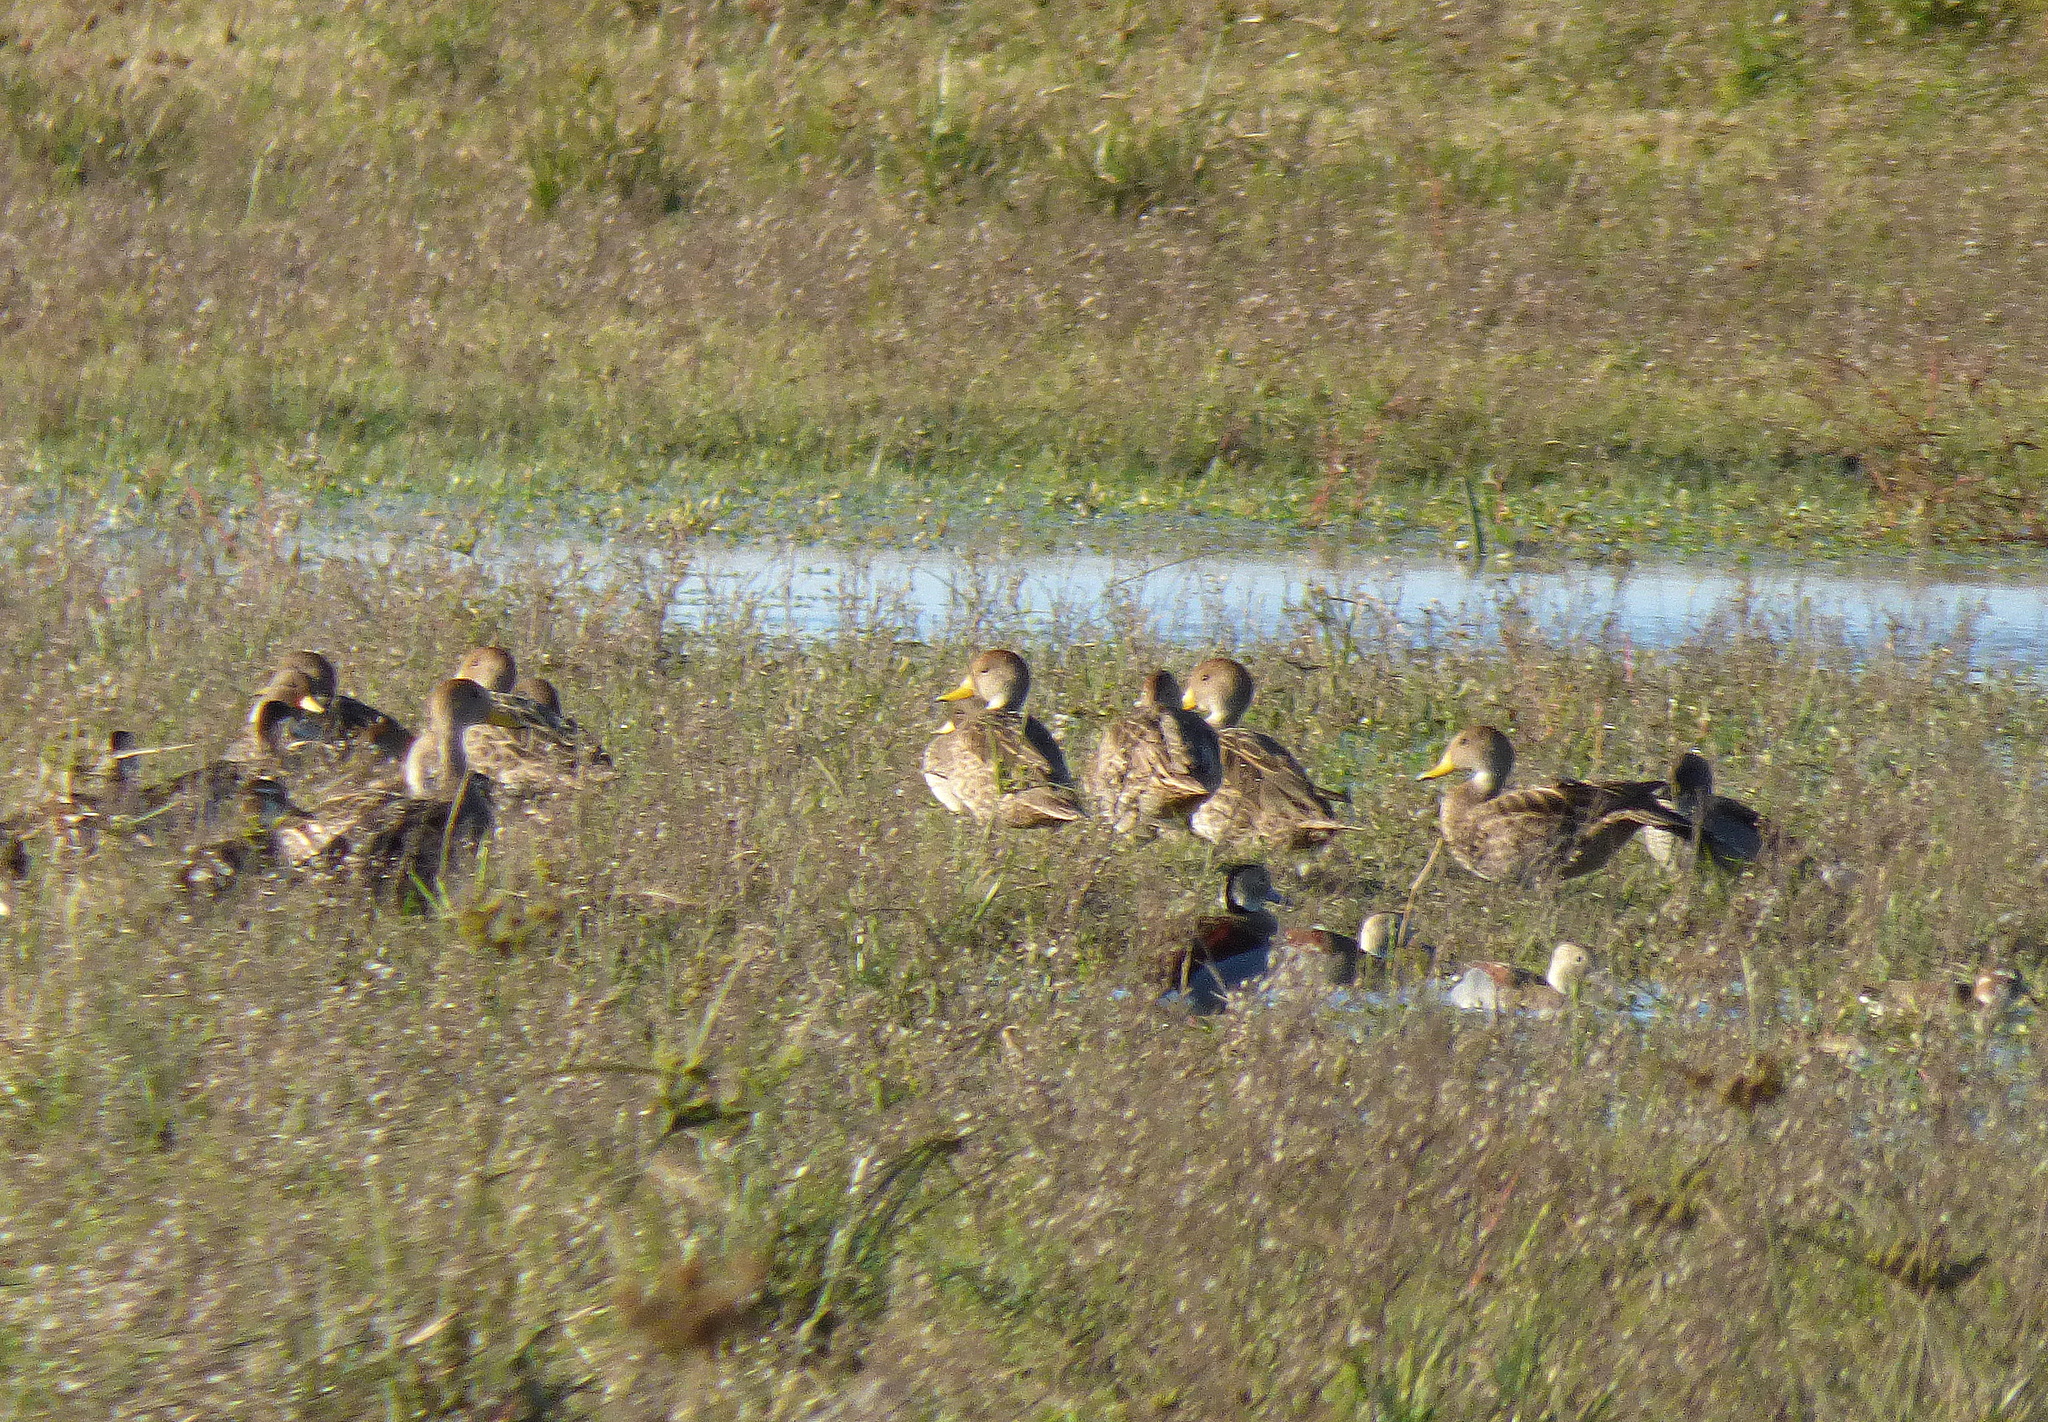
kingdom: Animalia
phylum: Chordata
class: Aves
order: Anseriformes
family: Anatidae
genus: Anas
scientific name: Anas georgica
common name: Yellow-billed pintail
